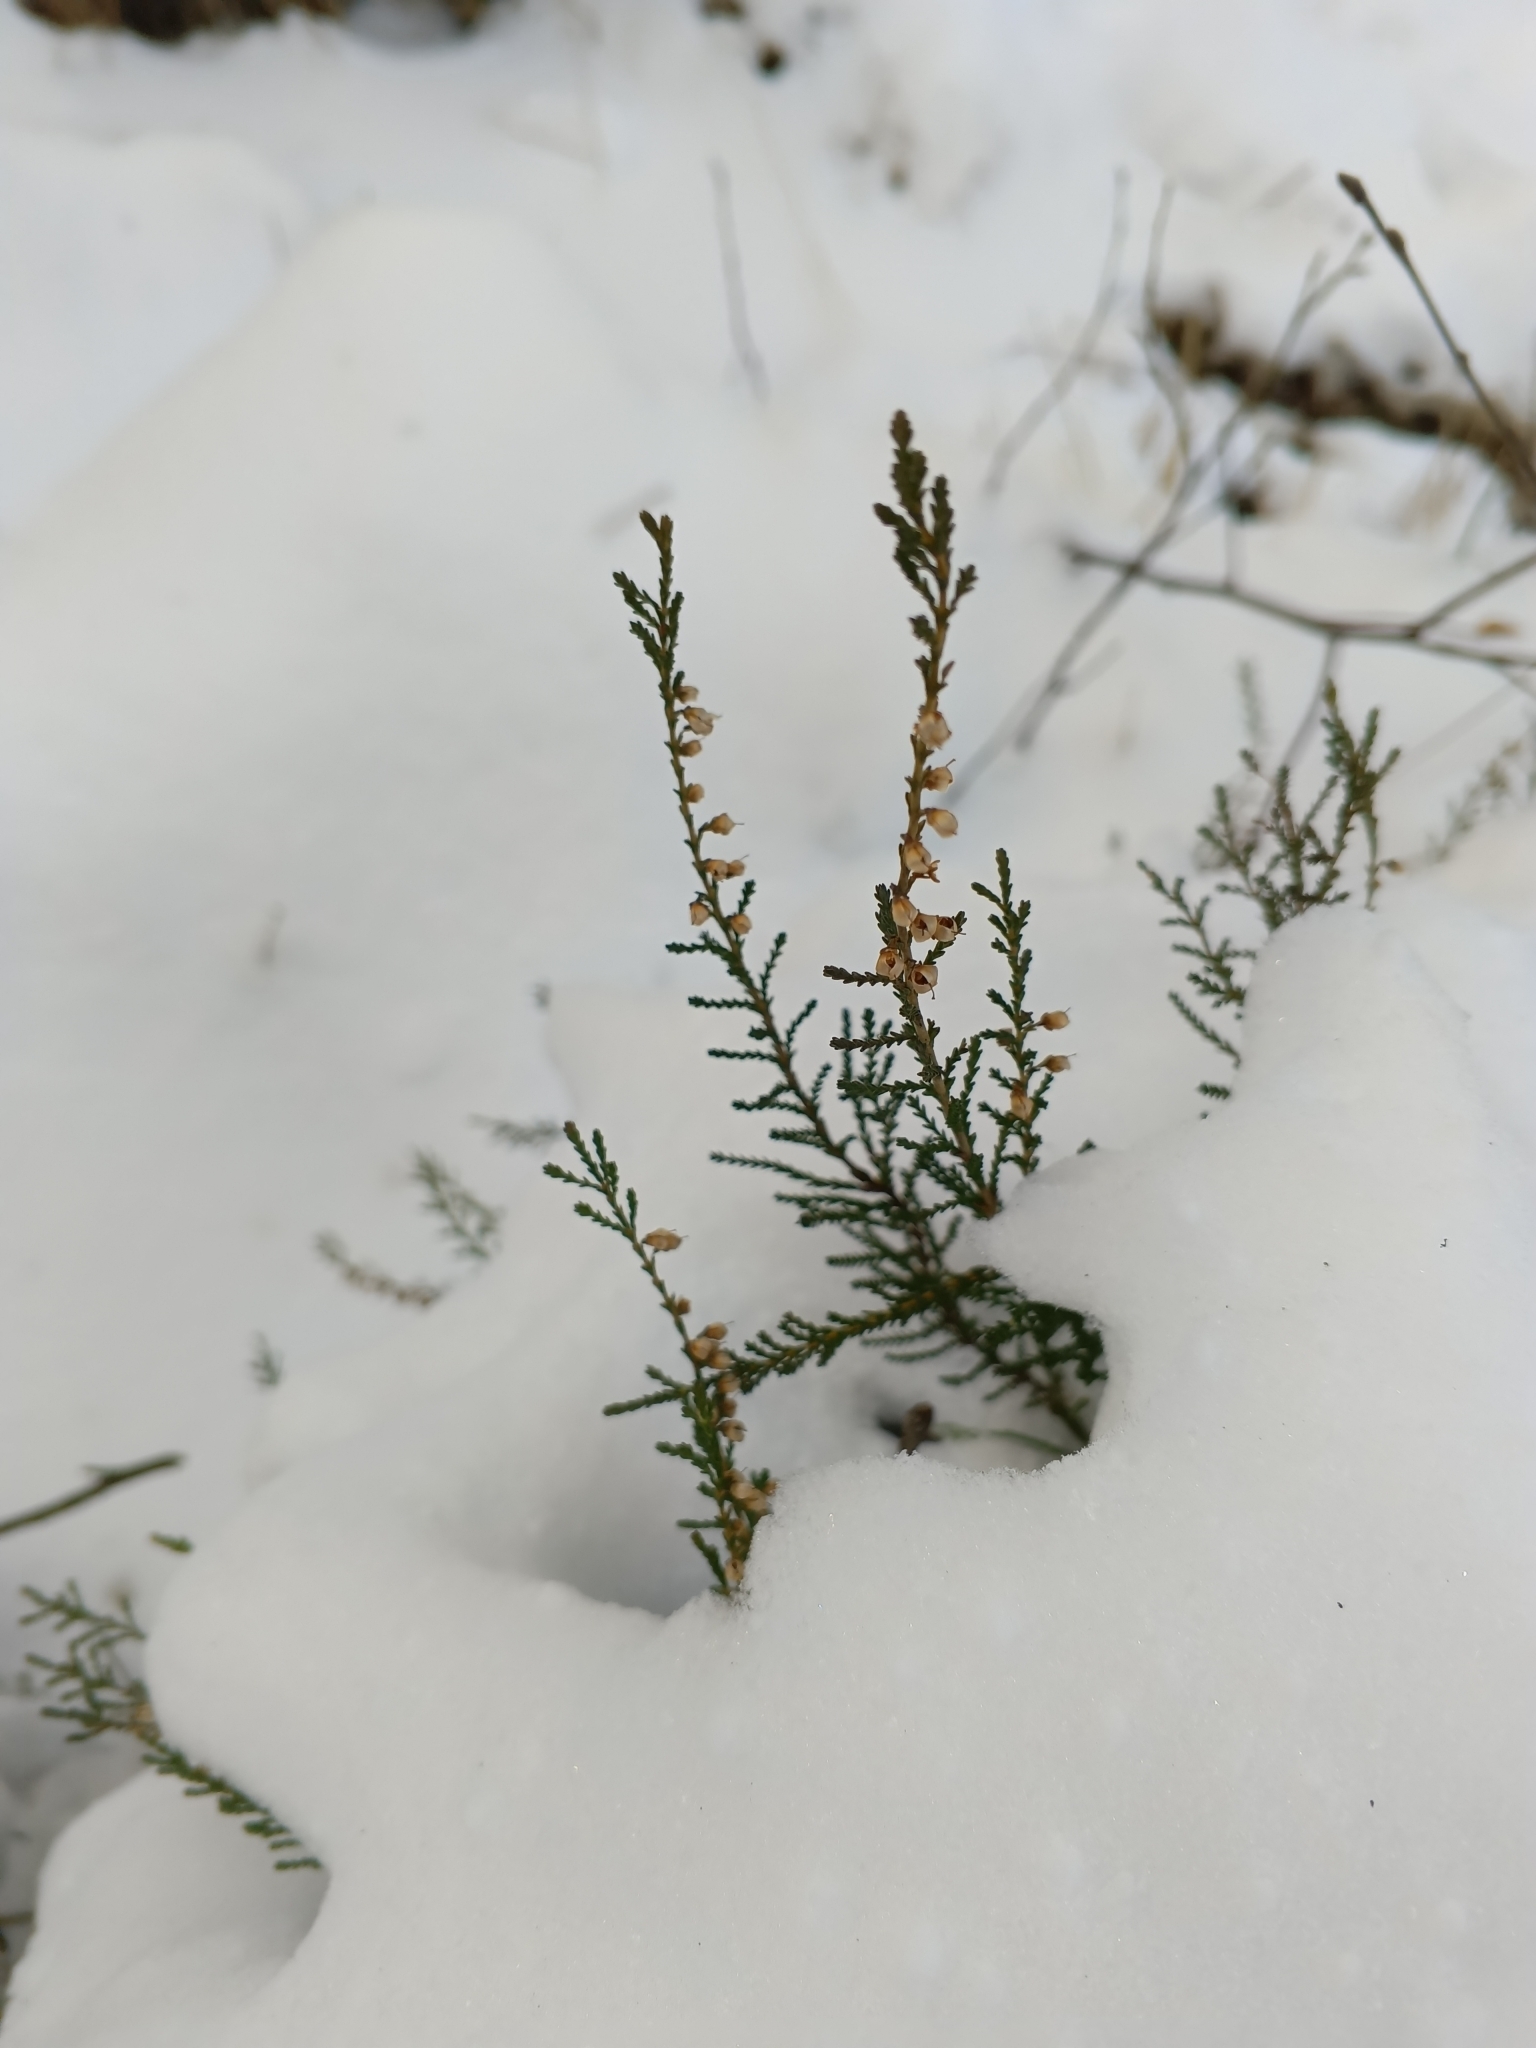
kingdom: Plantae
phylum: Tracheophyta
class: Magnoliopsida
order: Ericales
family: Ericaceae
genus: Calluna
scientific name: Calluna vulgaris
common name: Heather
